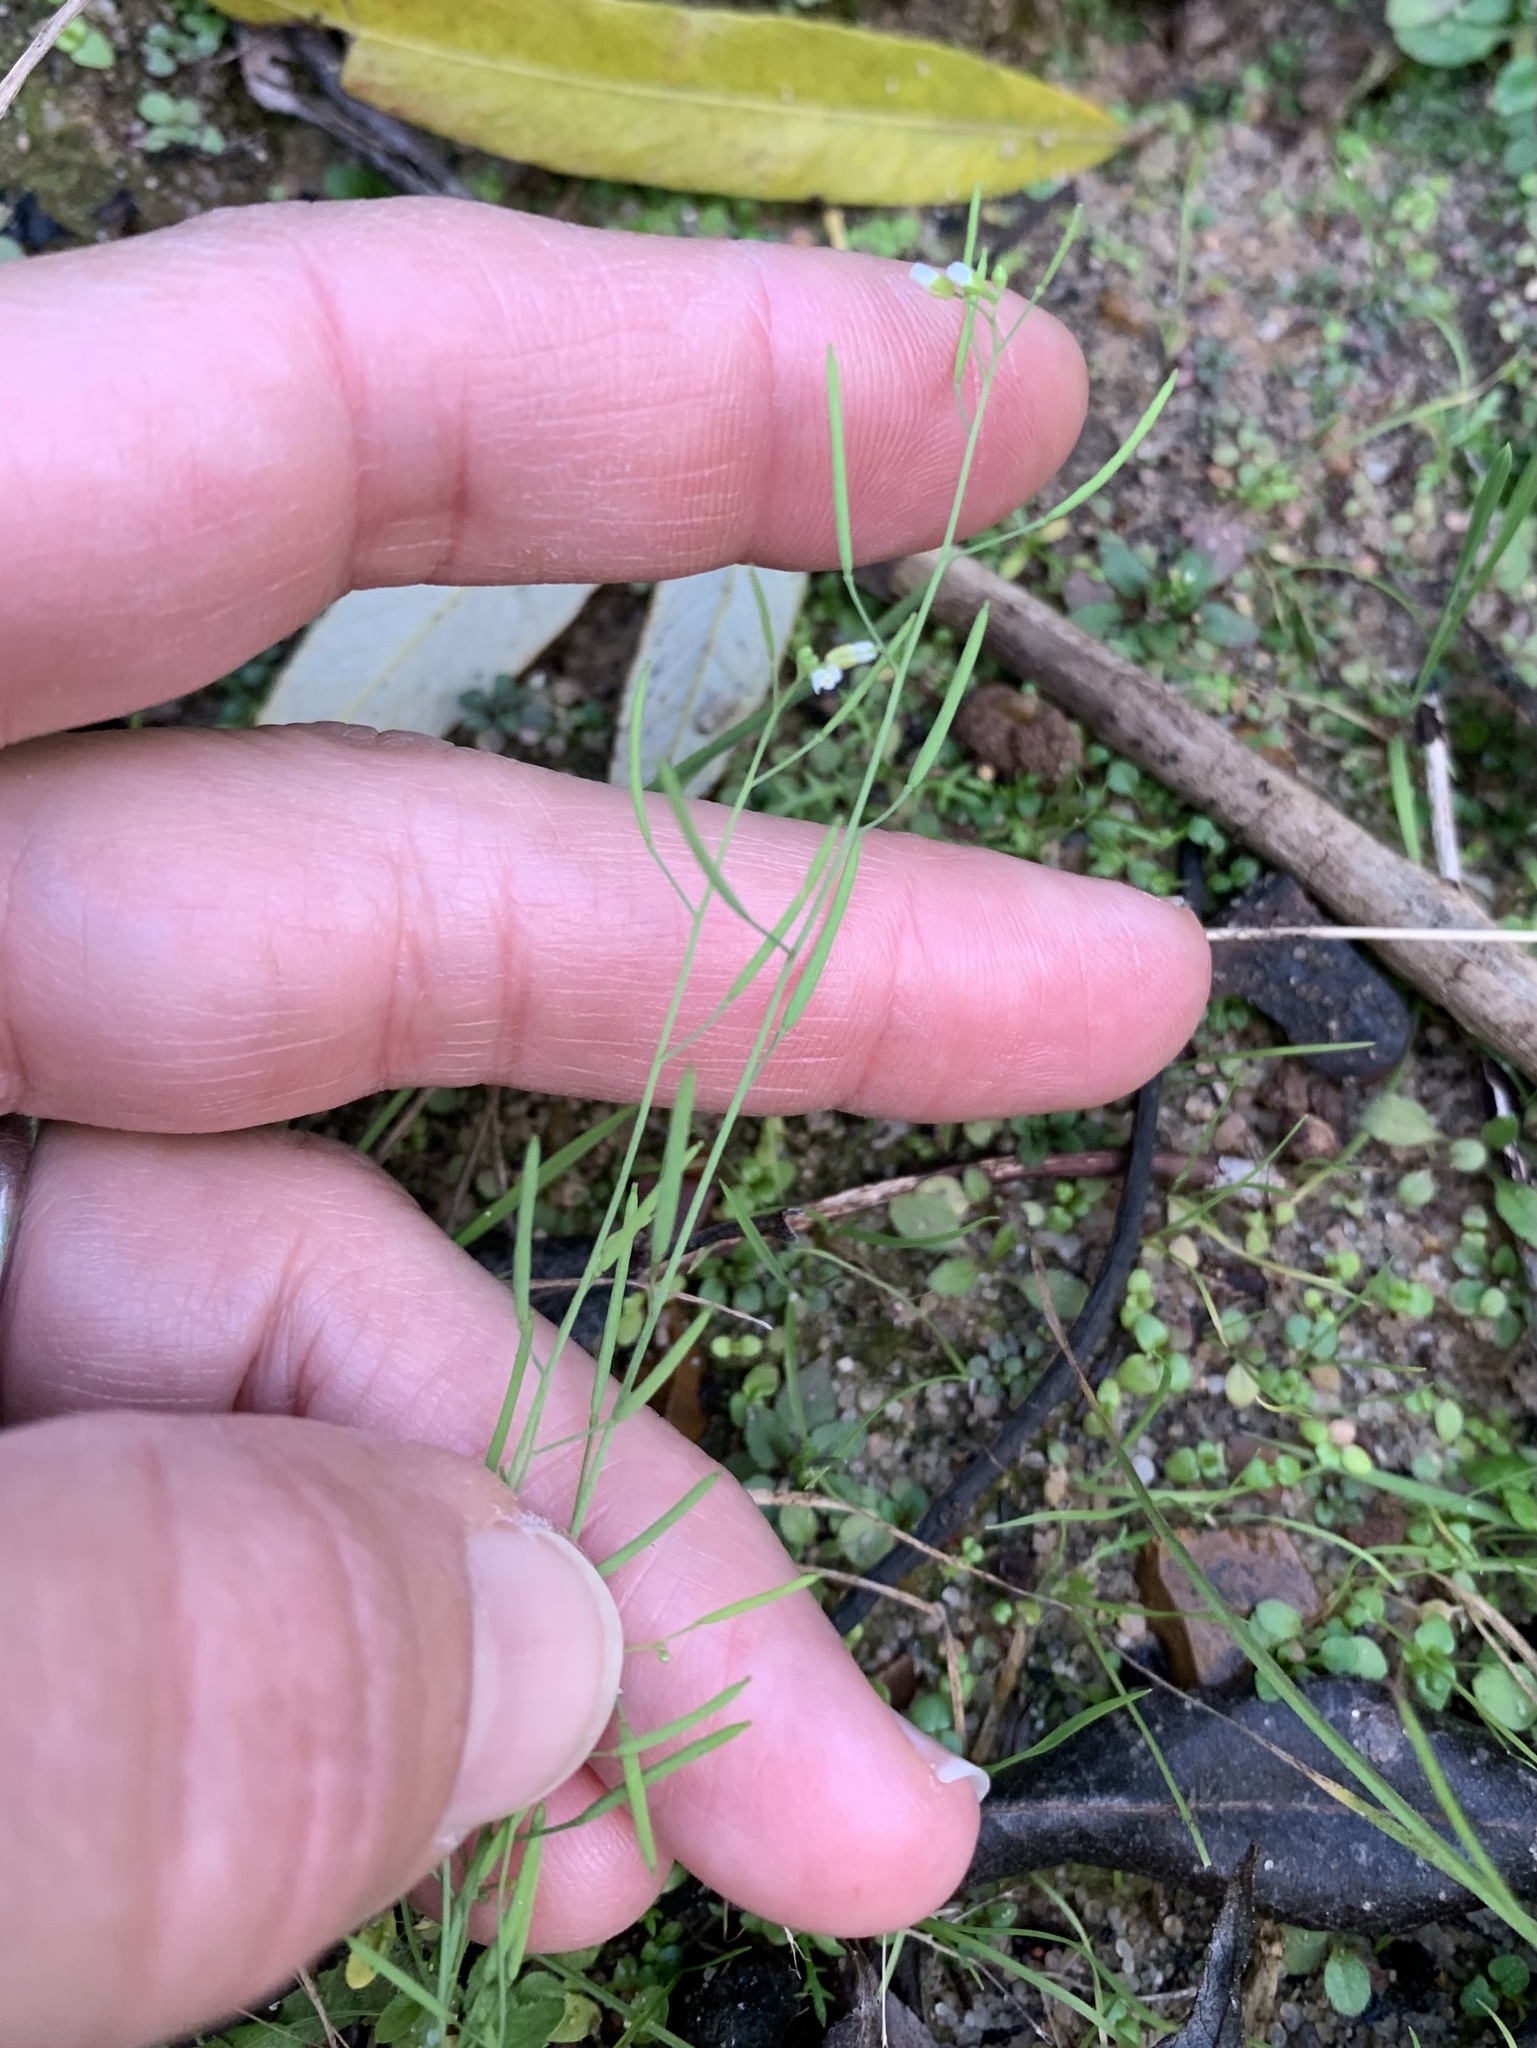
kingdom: Plantae
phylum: Tracheophyta
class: Magnoliopsida
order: Brassicales
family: Brassicaceae
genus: Arabidopsis
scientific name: Arabidopsis thaliana
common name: Thale cress
